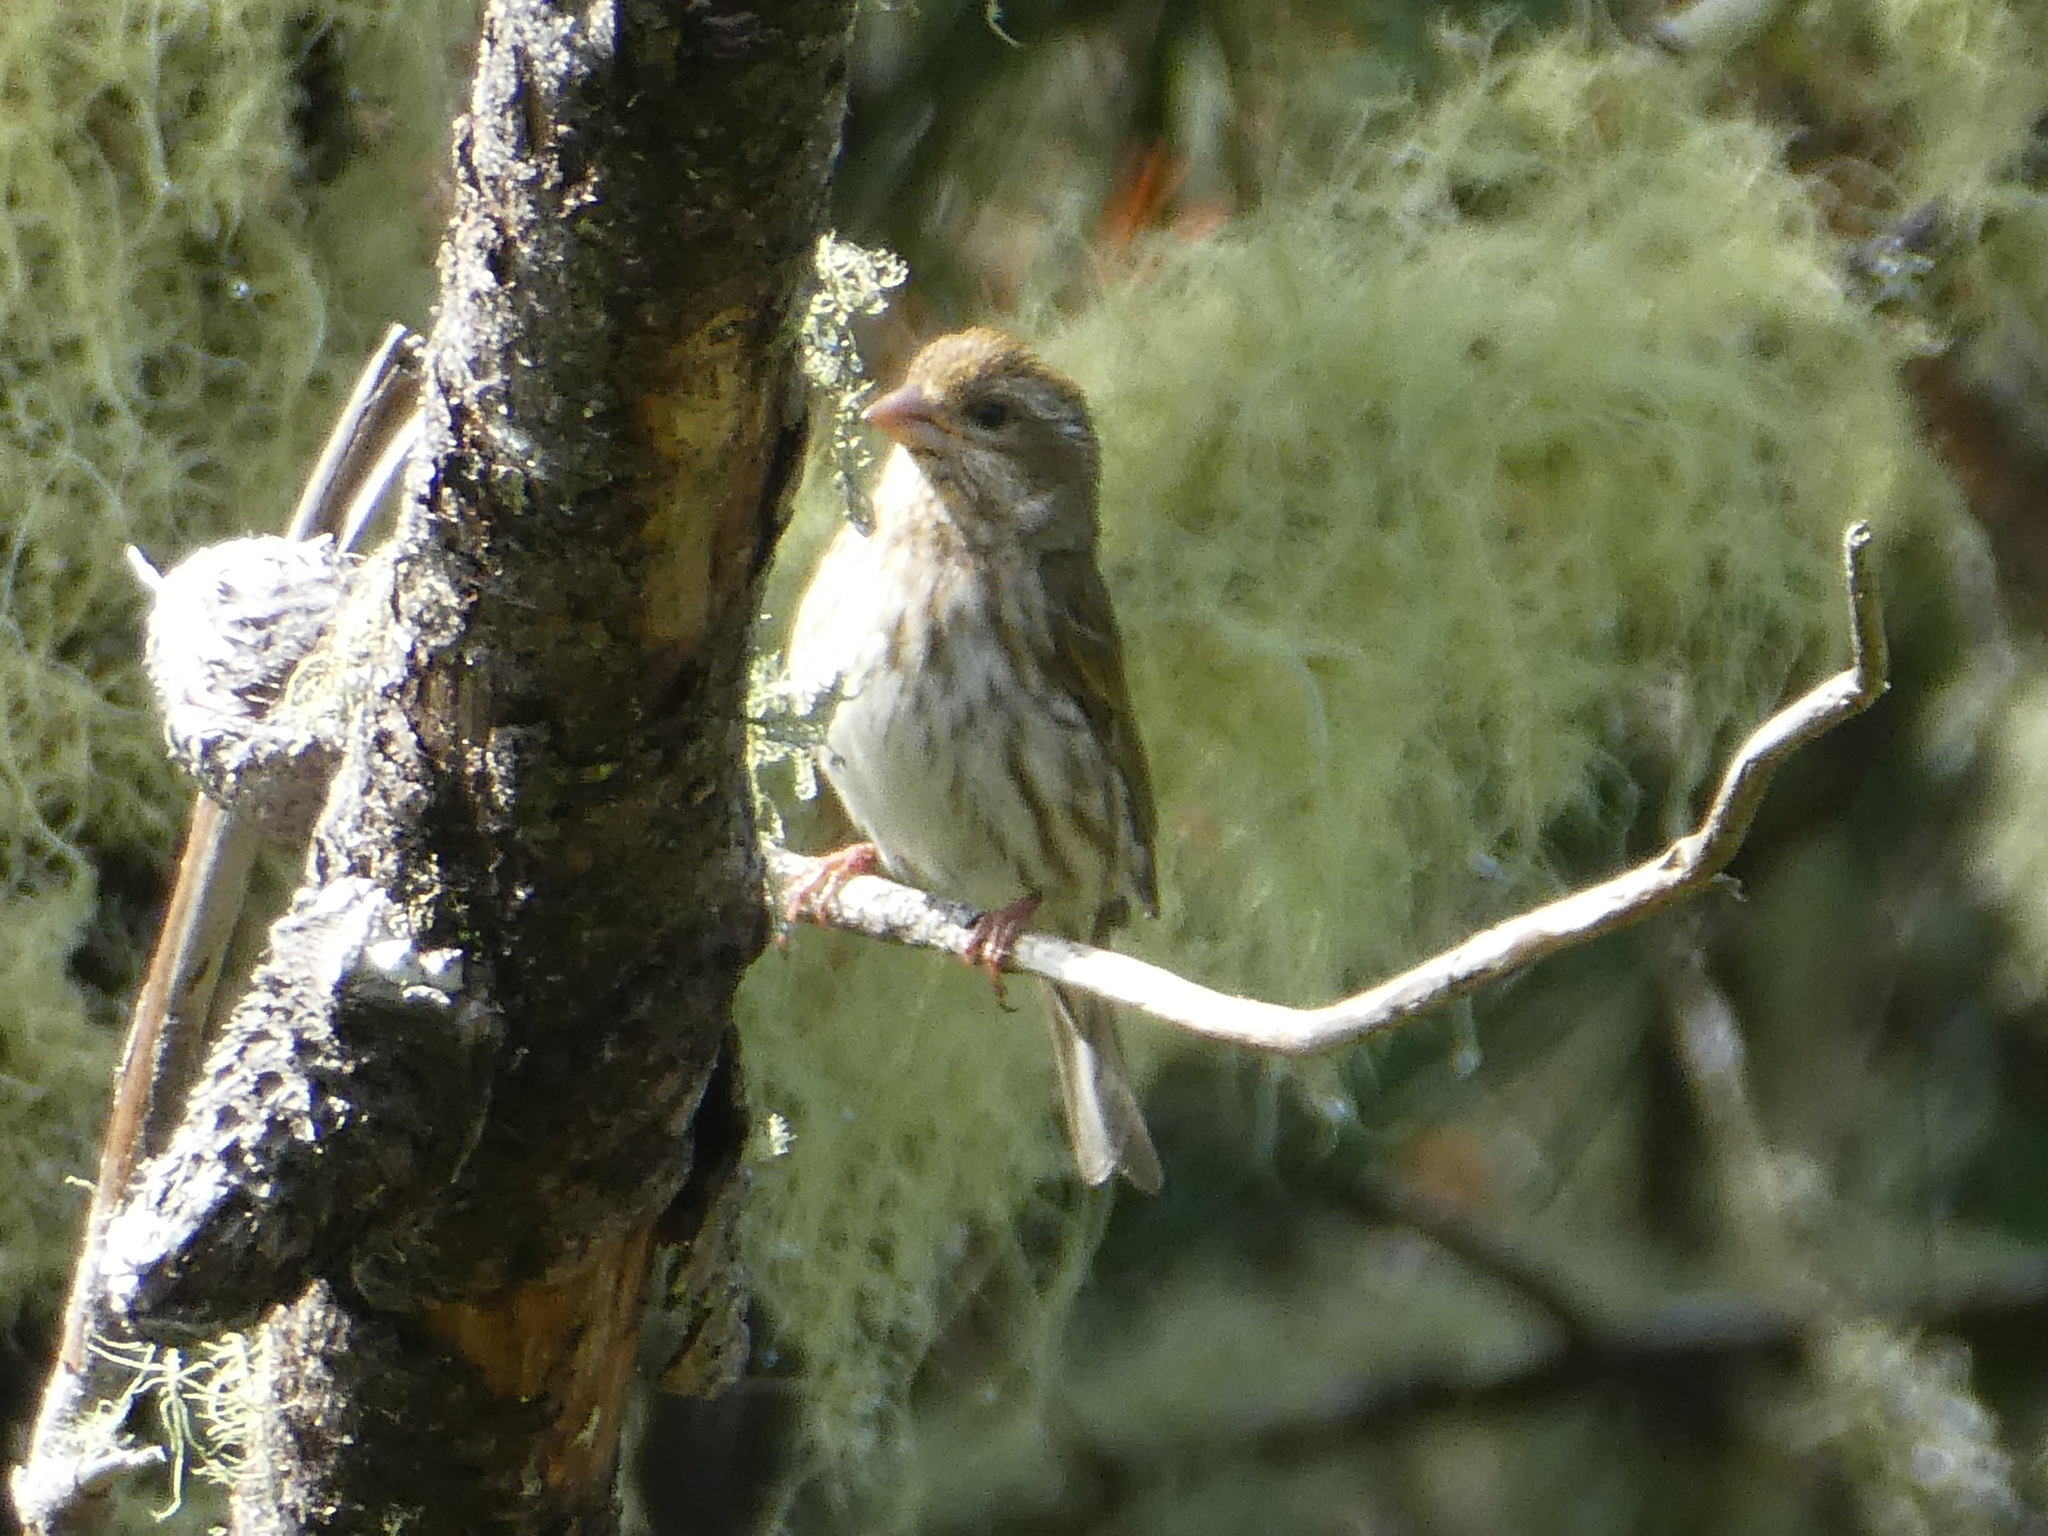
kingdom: Animalia
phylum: Chordata
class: Aves
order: Passeriformes
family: Fringillidae
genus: Haemorhous
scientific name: Haemorhous purpureus
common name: Purple finch
